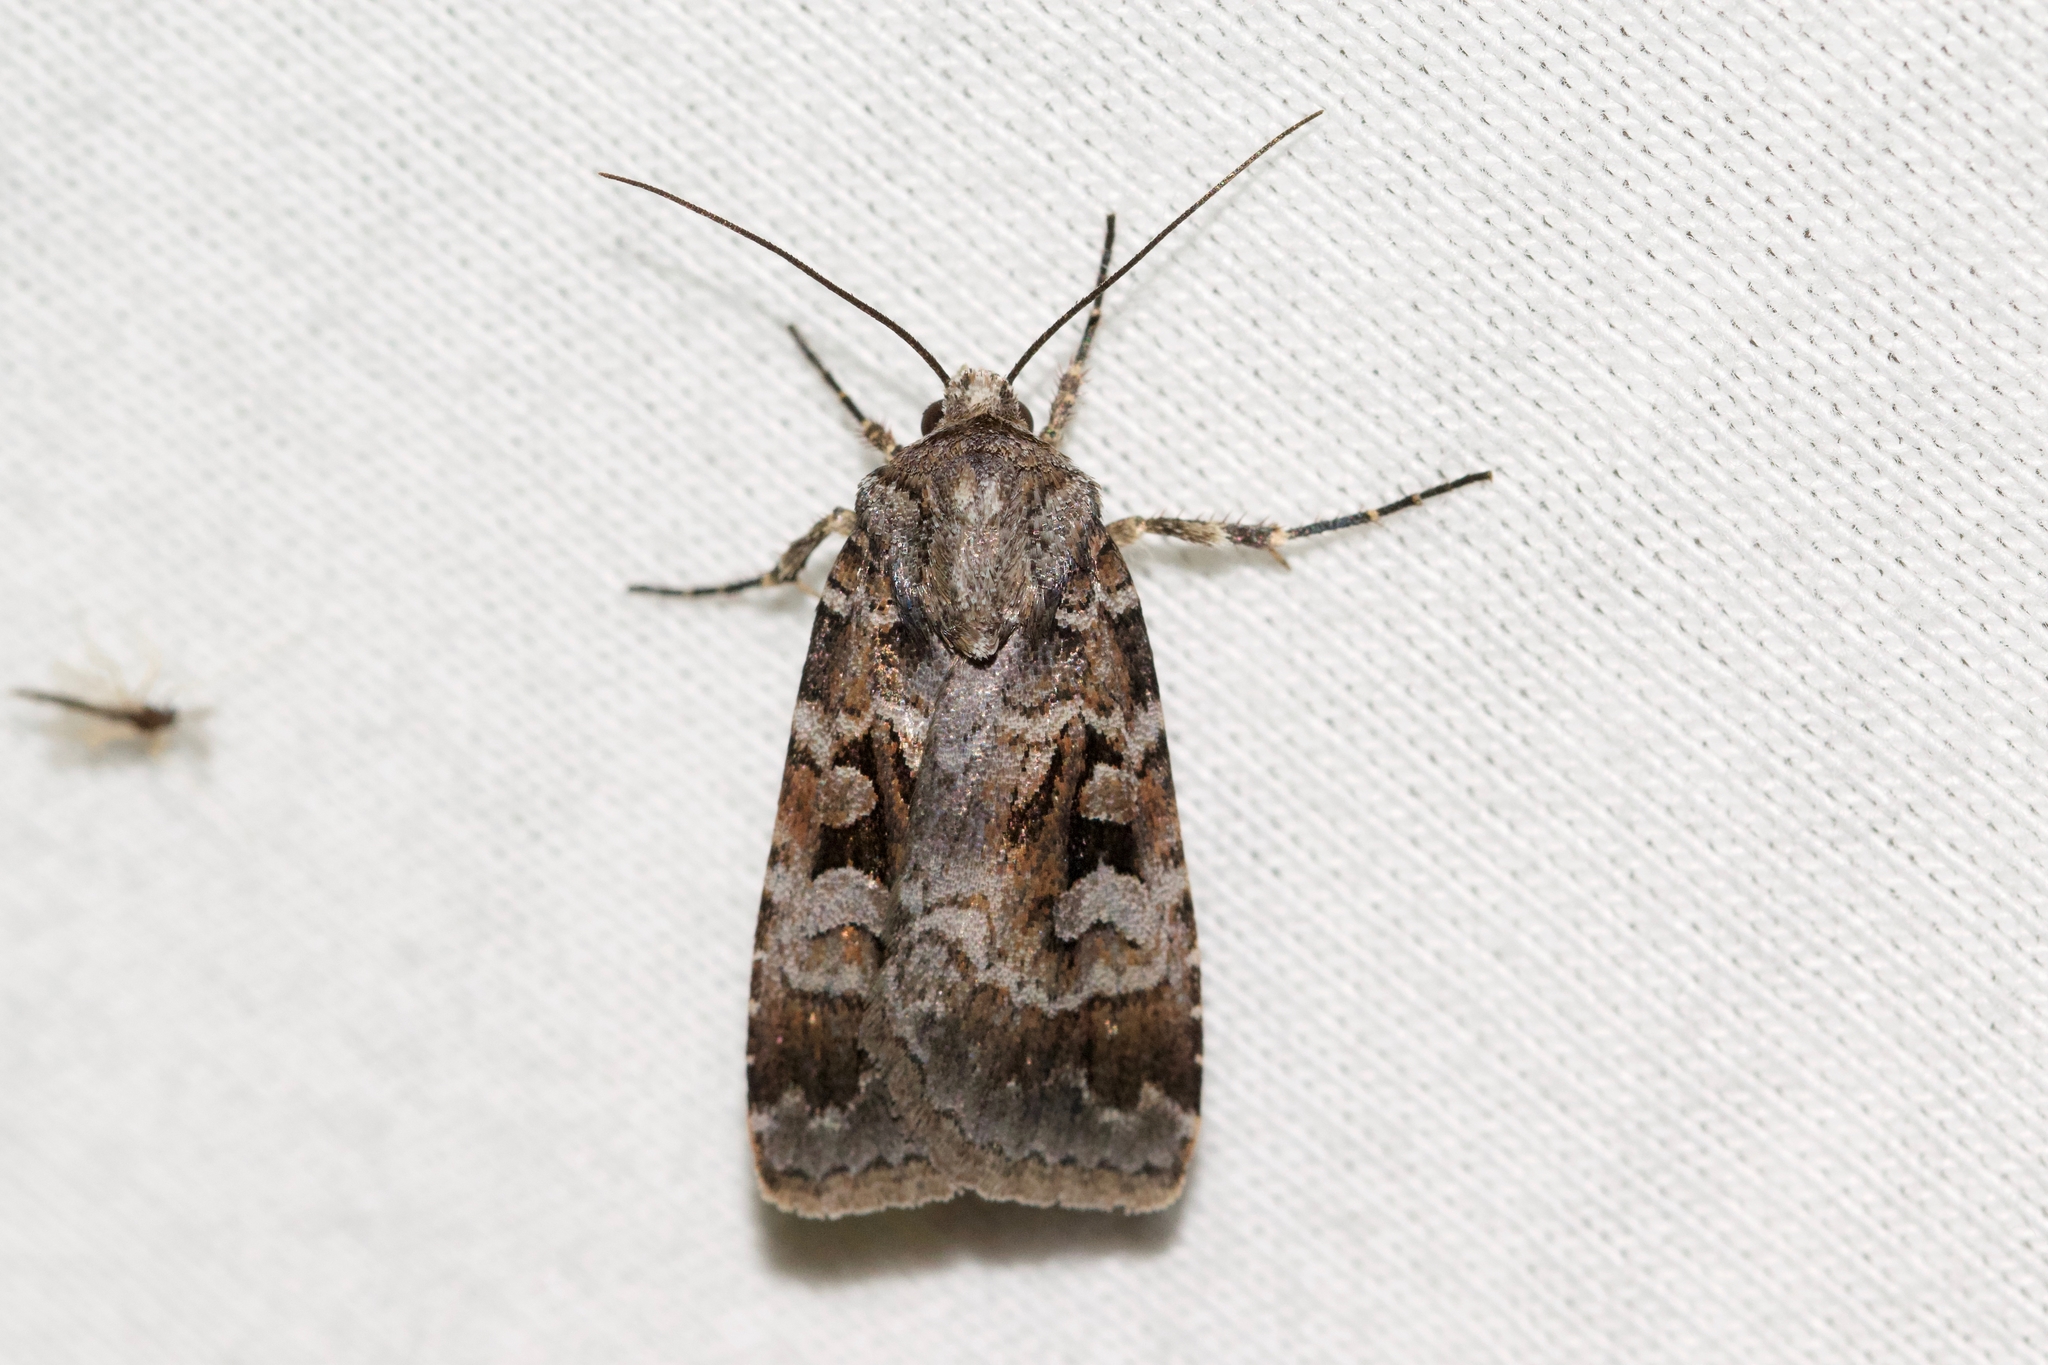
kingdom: Animalia
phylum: Arthropoda
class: Insecta
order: Lepidoptera
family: Noctuidae
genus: Feltia
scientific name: Feltia geniculata
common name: Knee-joint dart
